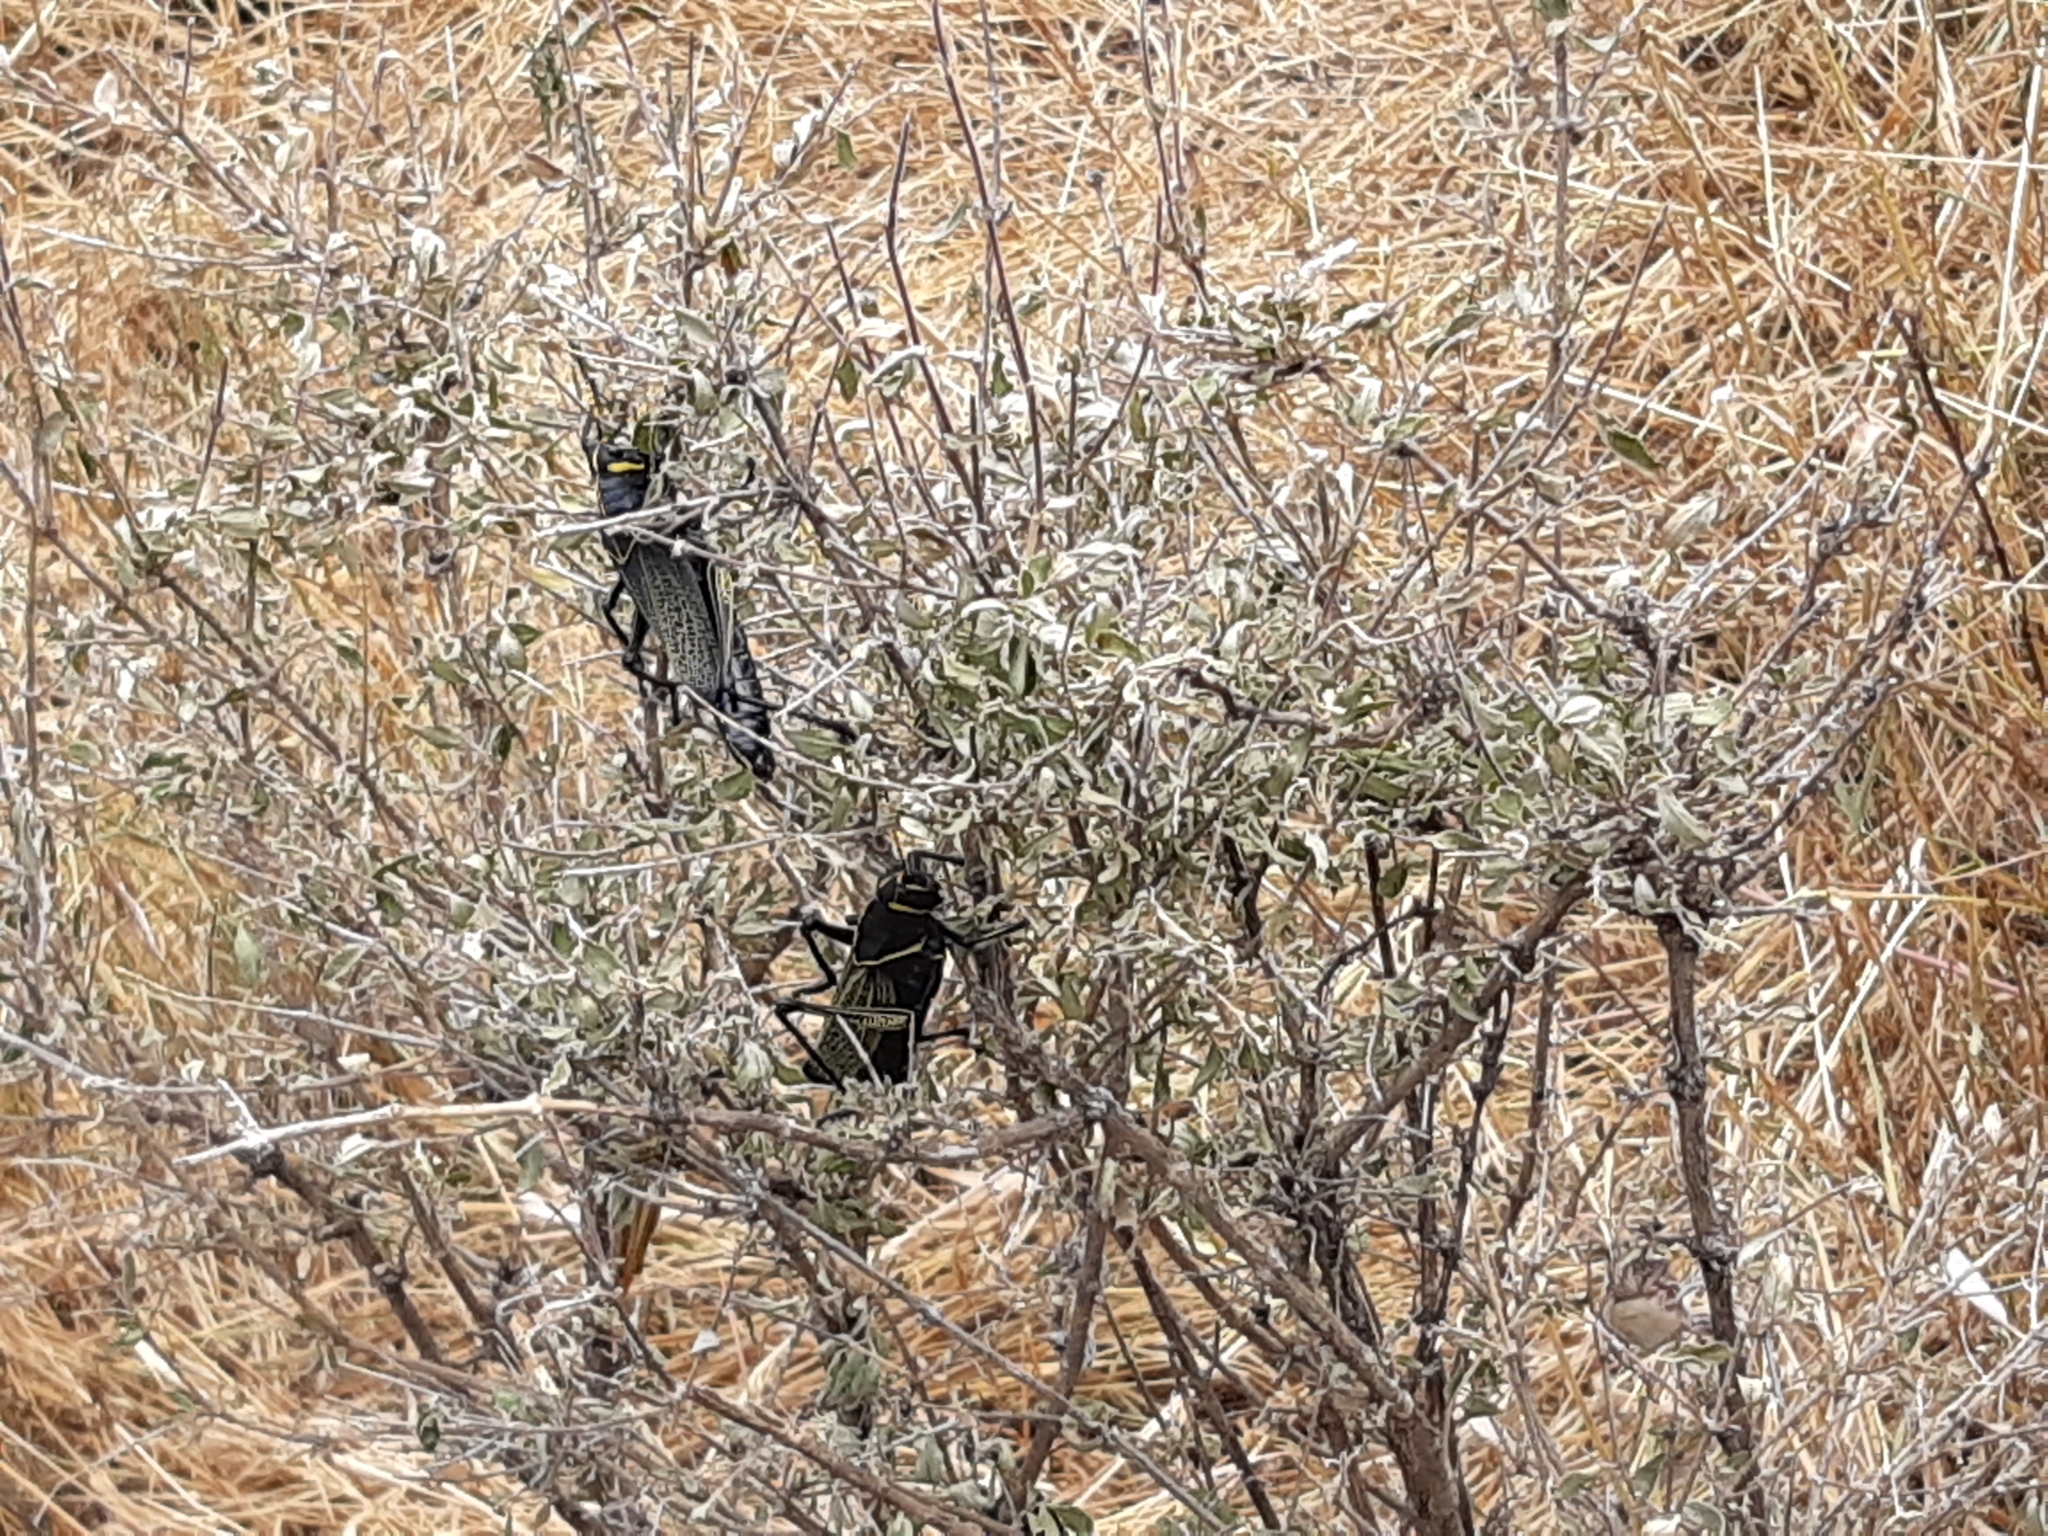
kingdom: Animalia
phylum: Arthropoda
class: Insecta
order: Orthoptera
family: Romaleidae
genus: Romalea
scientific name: Romalea
